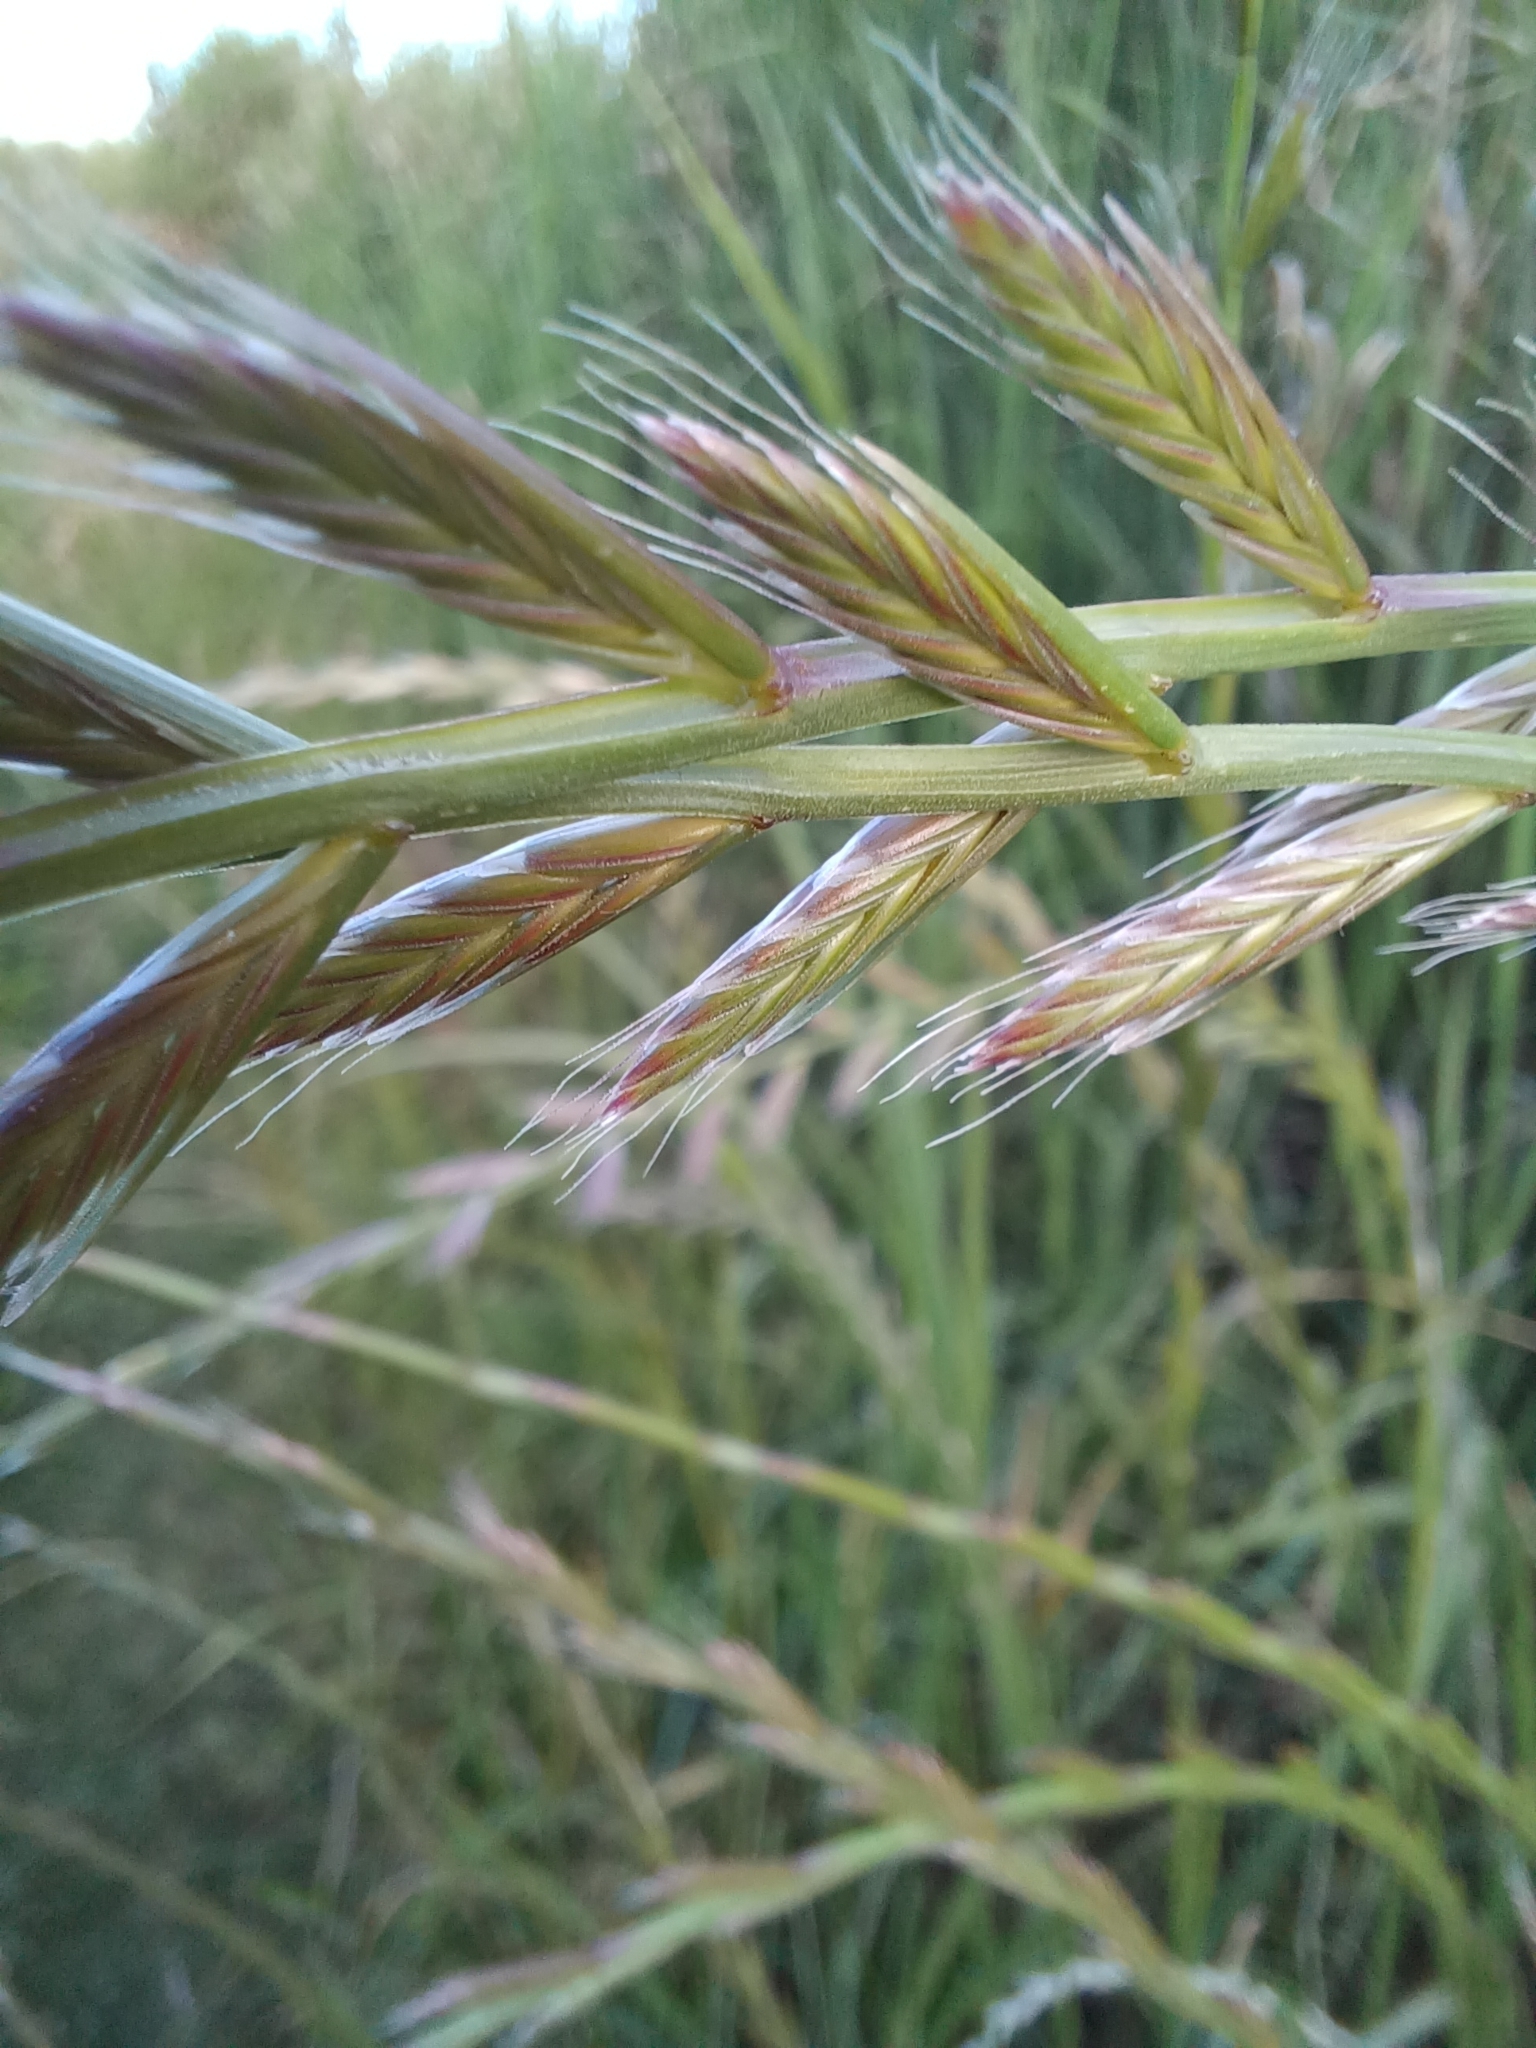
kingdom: Plantae
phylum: Tracheophyta
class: Liliopsida
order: Poales
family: Poaceae
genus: Lolium
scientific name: Lolium multiflorum
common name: Annual ryegrass
